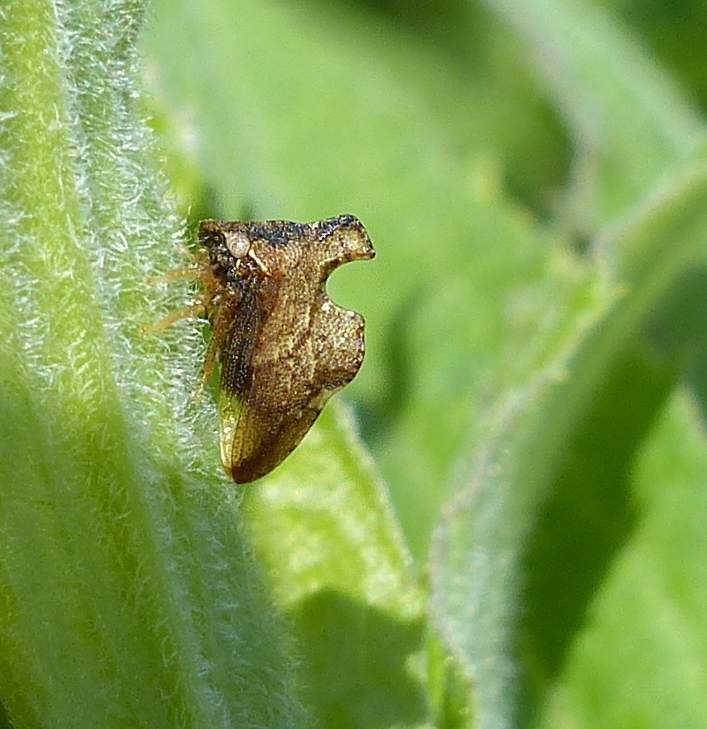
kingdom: Animalia
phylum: Arthropoda
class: Insecta
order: Hemiptera
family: Membracidae
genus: Entylia
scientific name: Entylia carinata
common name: Keeled treehopper
